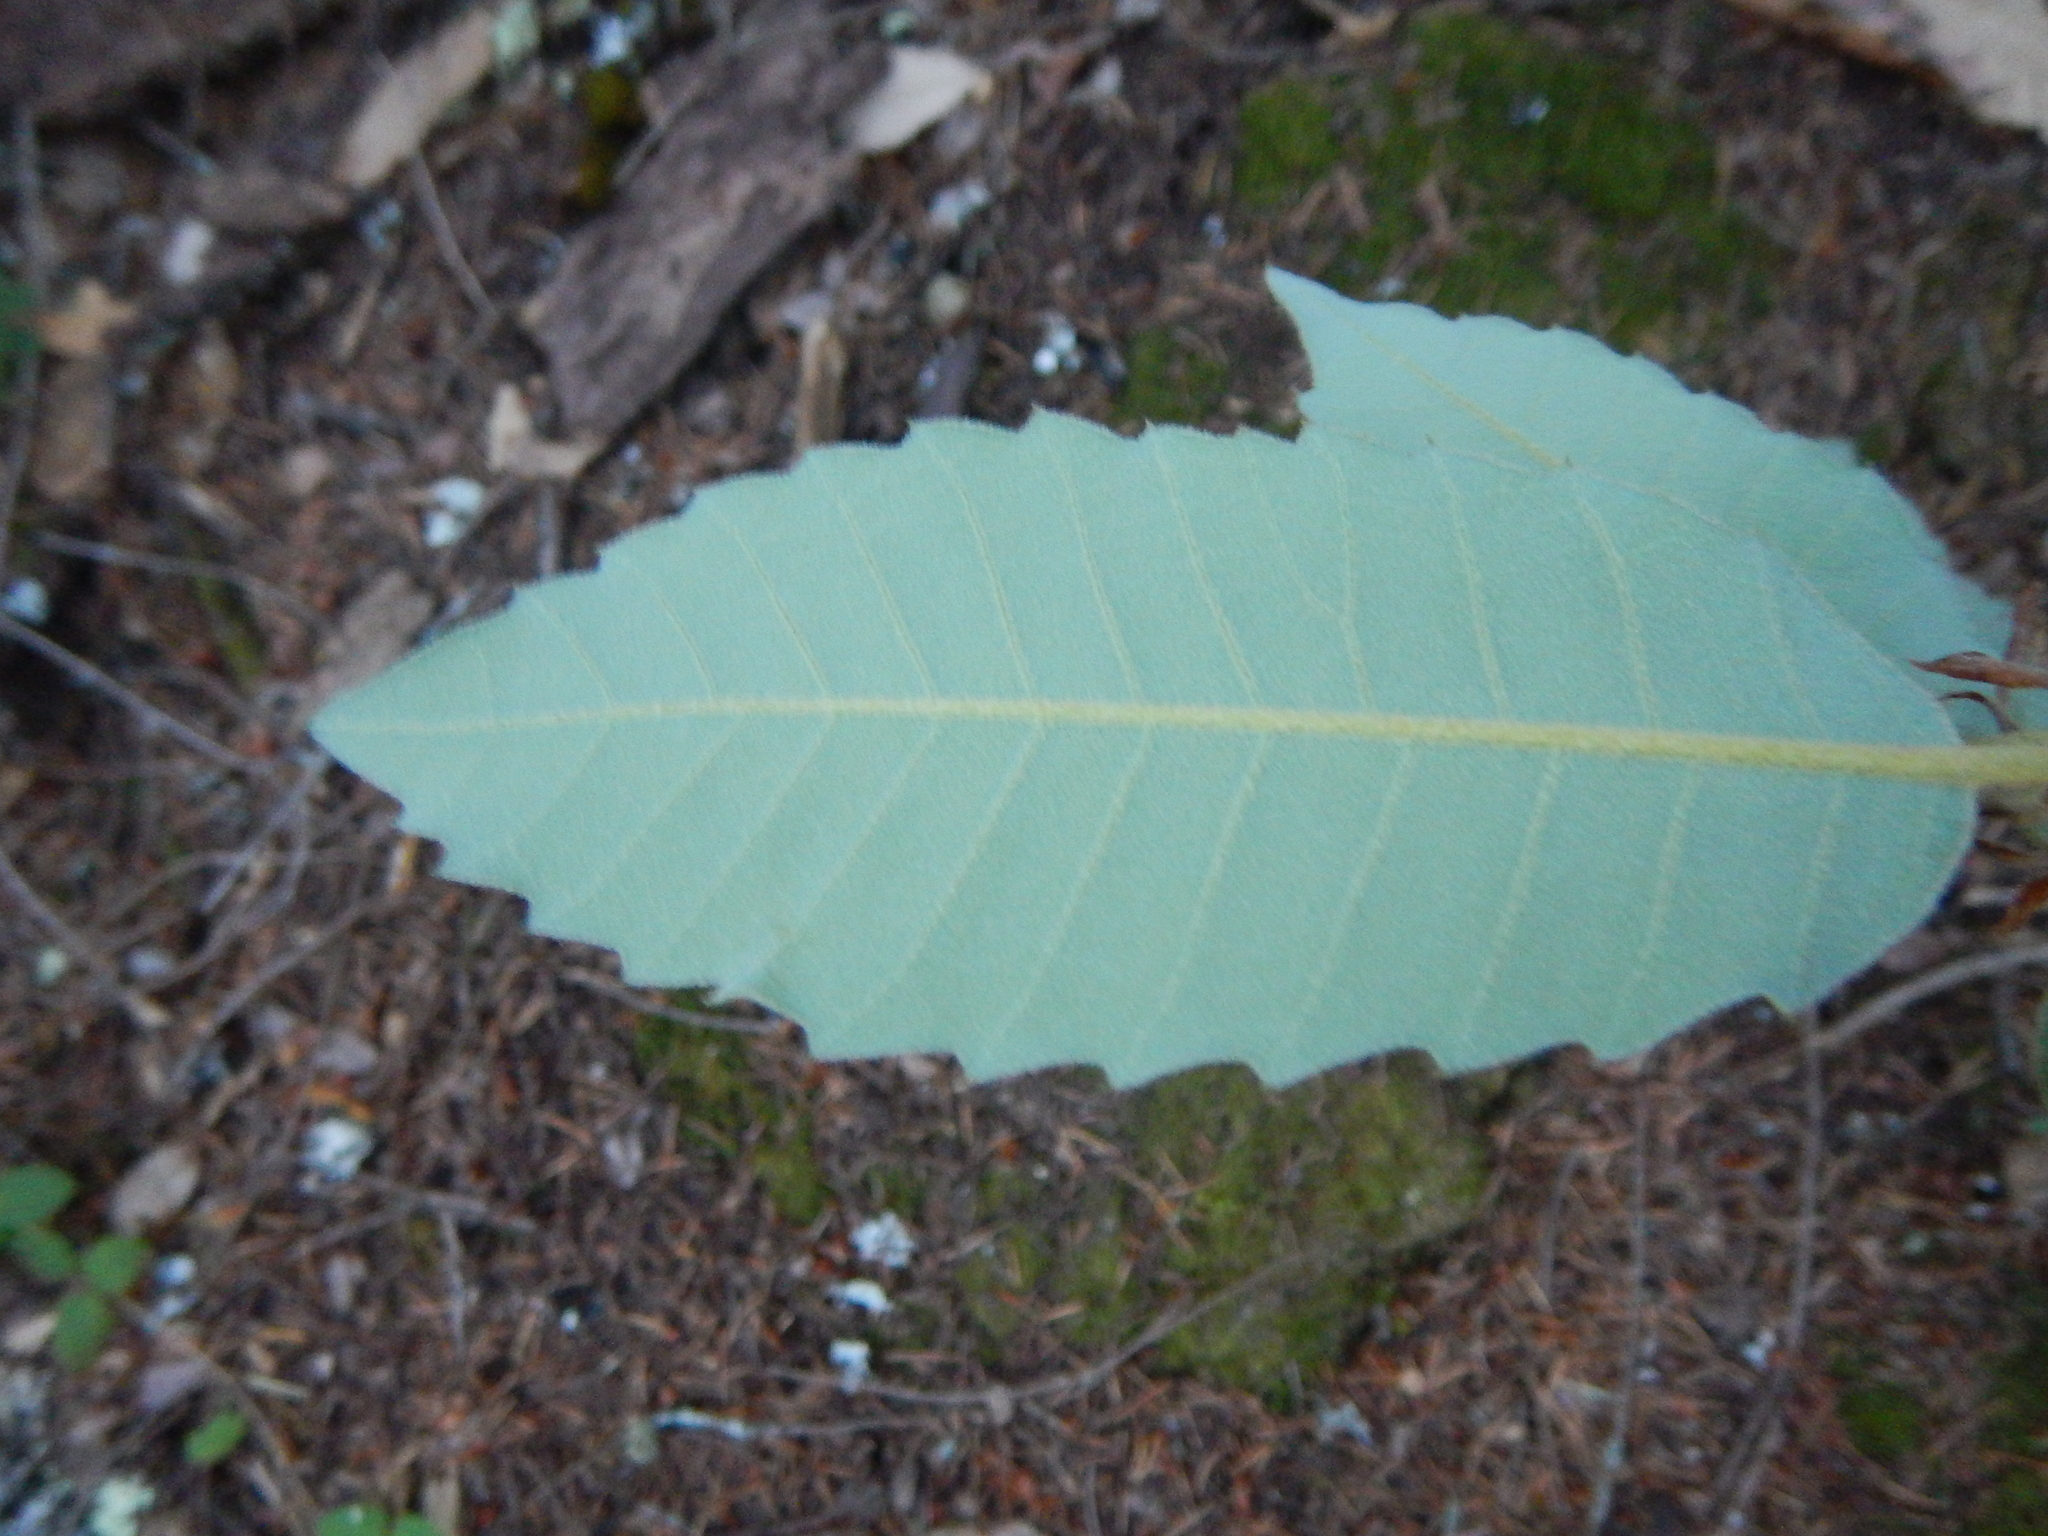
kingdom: Plantae
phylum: Tracheophyta
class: Magnoliopsida
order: Fagales
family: Fagaceae
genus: Notholithocarpus
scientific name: Notholithocarpus densiflorus
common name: Tan bark oak
